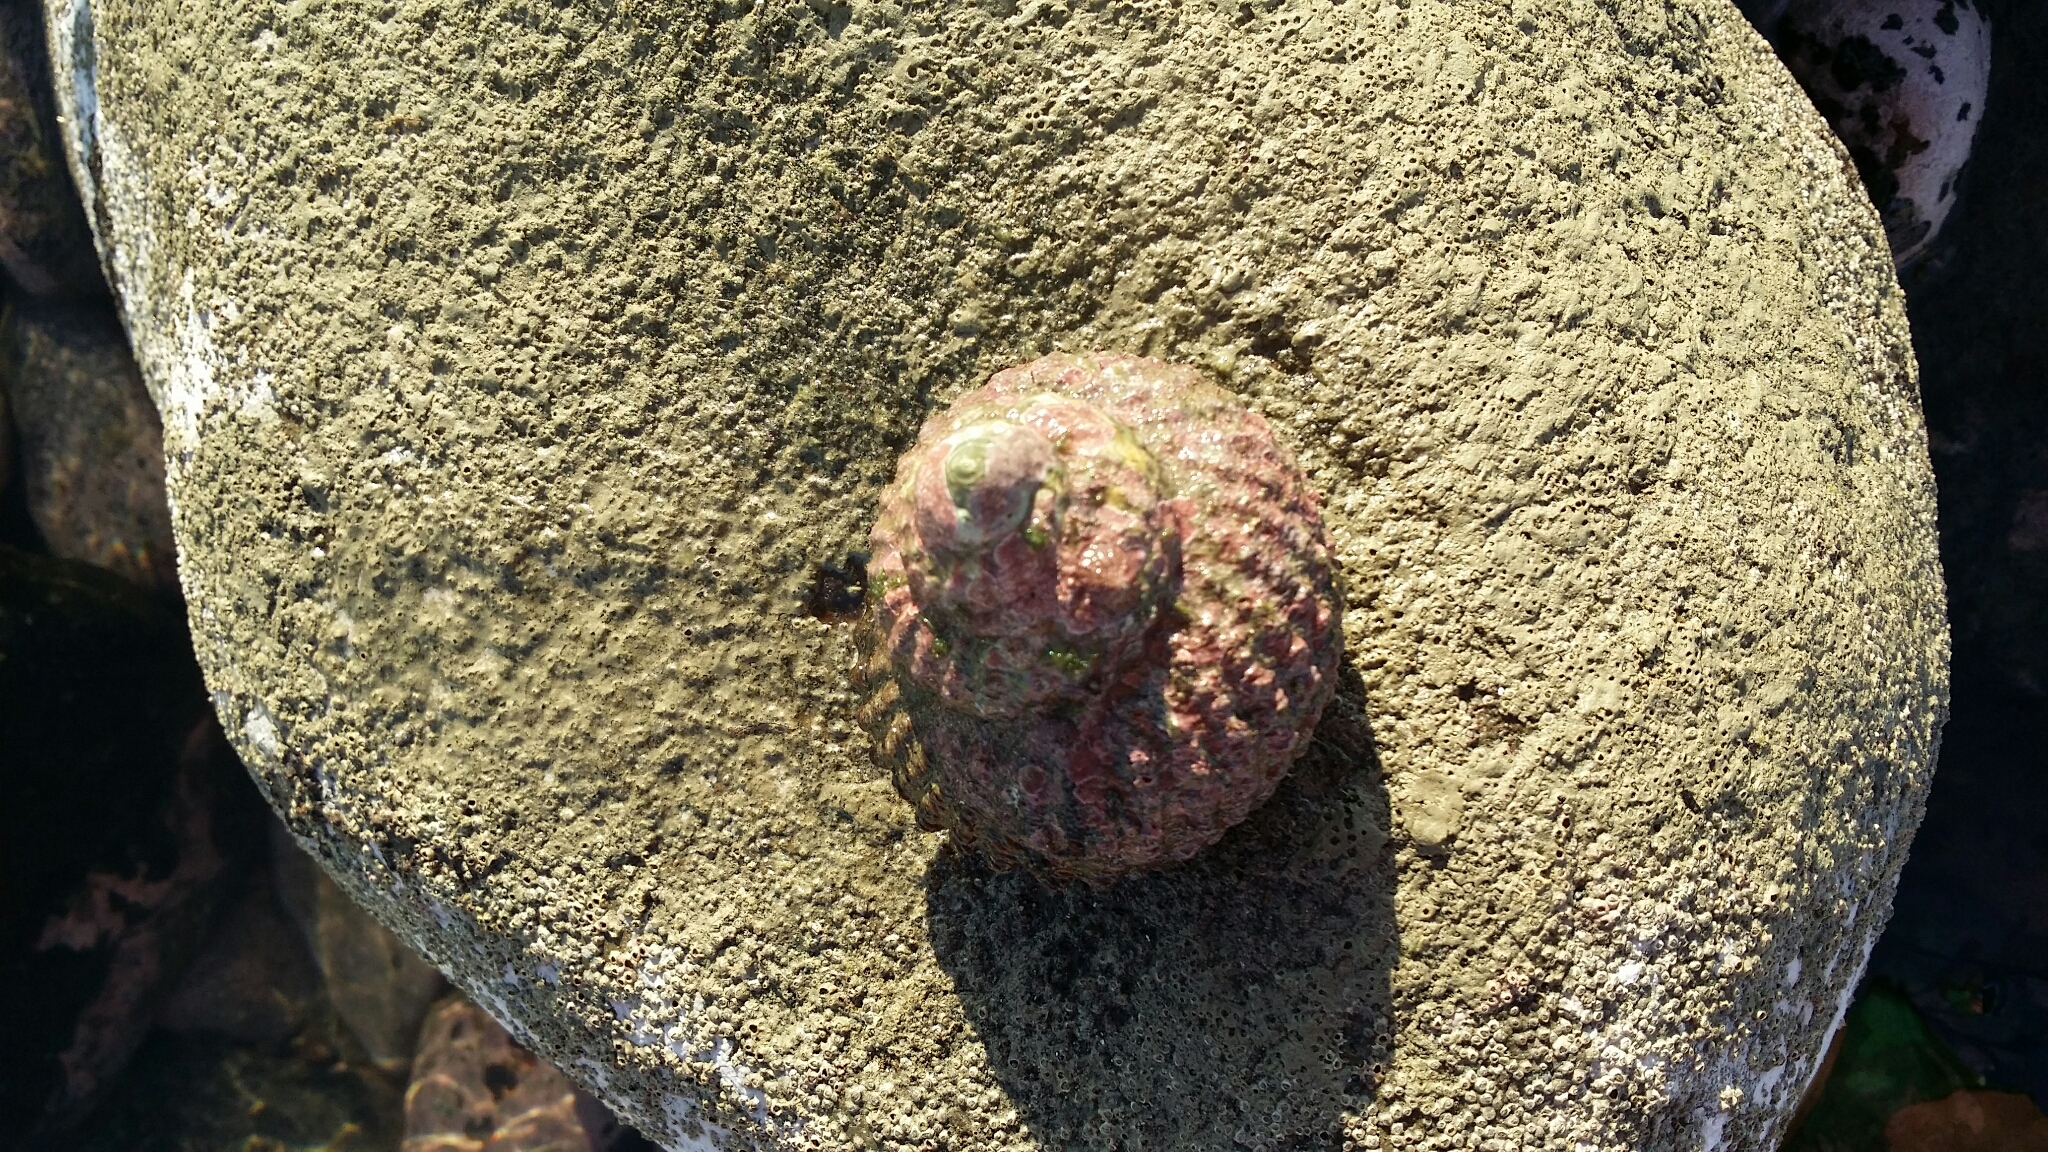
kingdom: Animalia
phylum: Mollusca
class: Gastropoda
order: Trochida
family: Turbinidae
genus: Cookia
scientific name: Cookia sulcata
